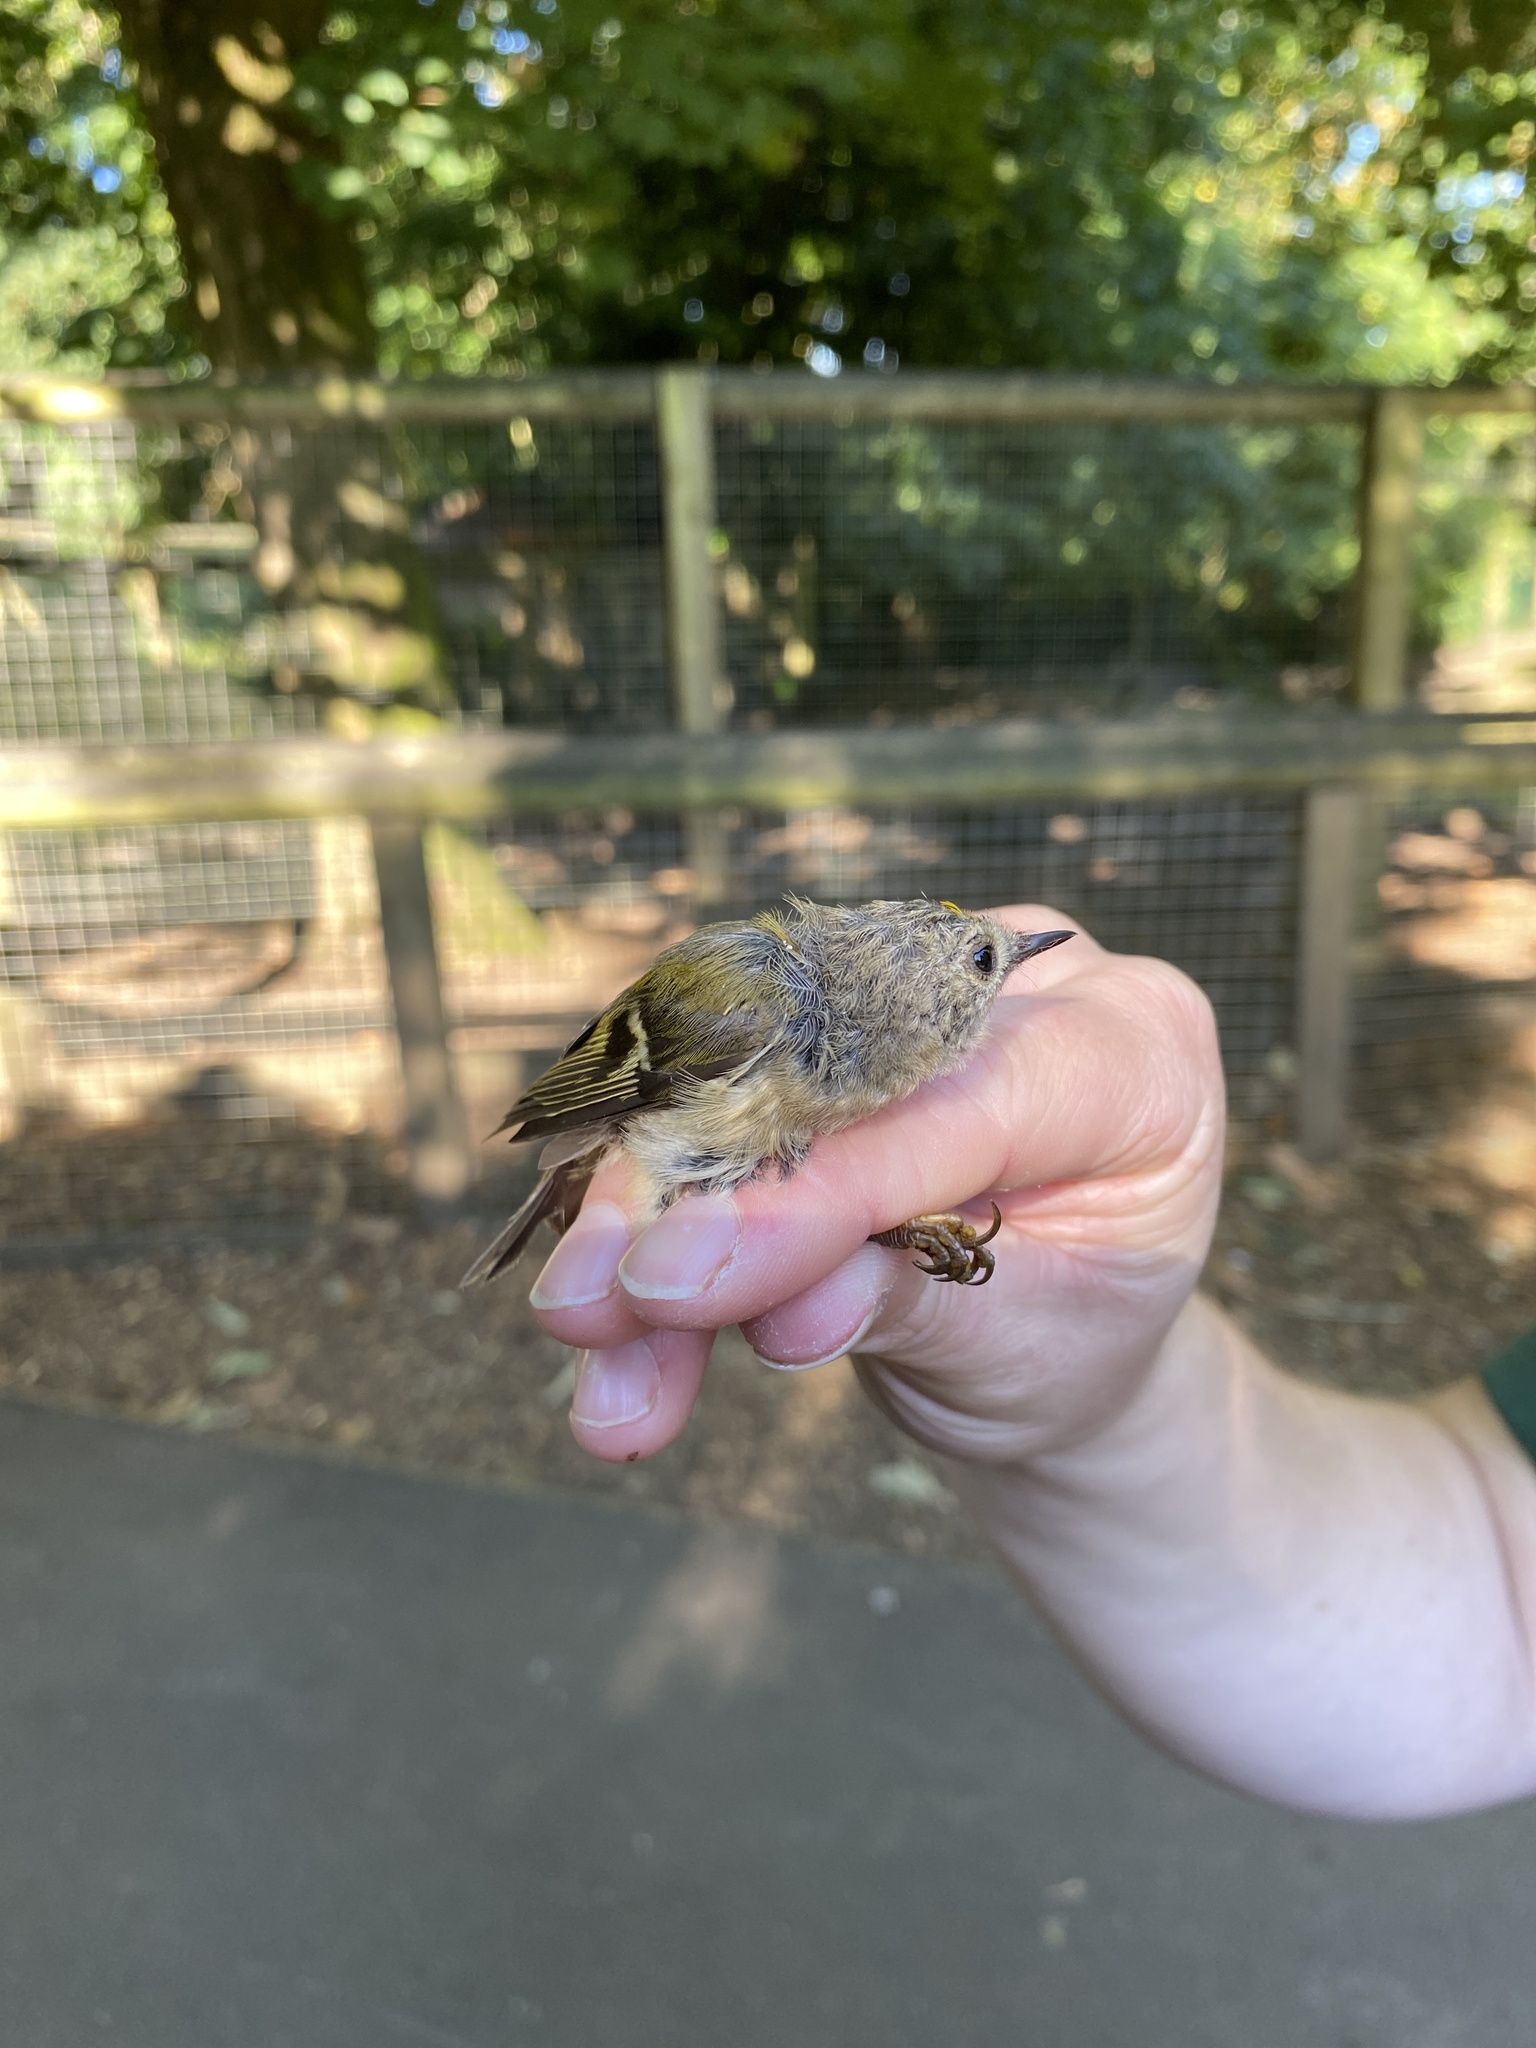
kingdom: Animalia
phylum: Chordata
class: Aves
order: Passeriformes
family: Regulidae
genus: Regulus
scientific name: Regulus regulus
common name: Goldcrest
